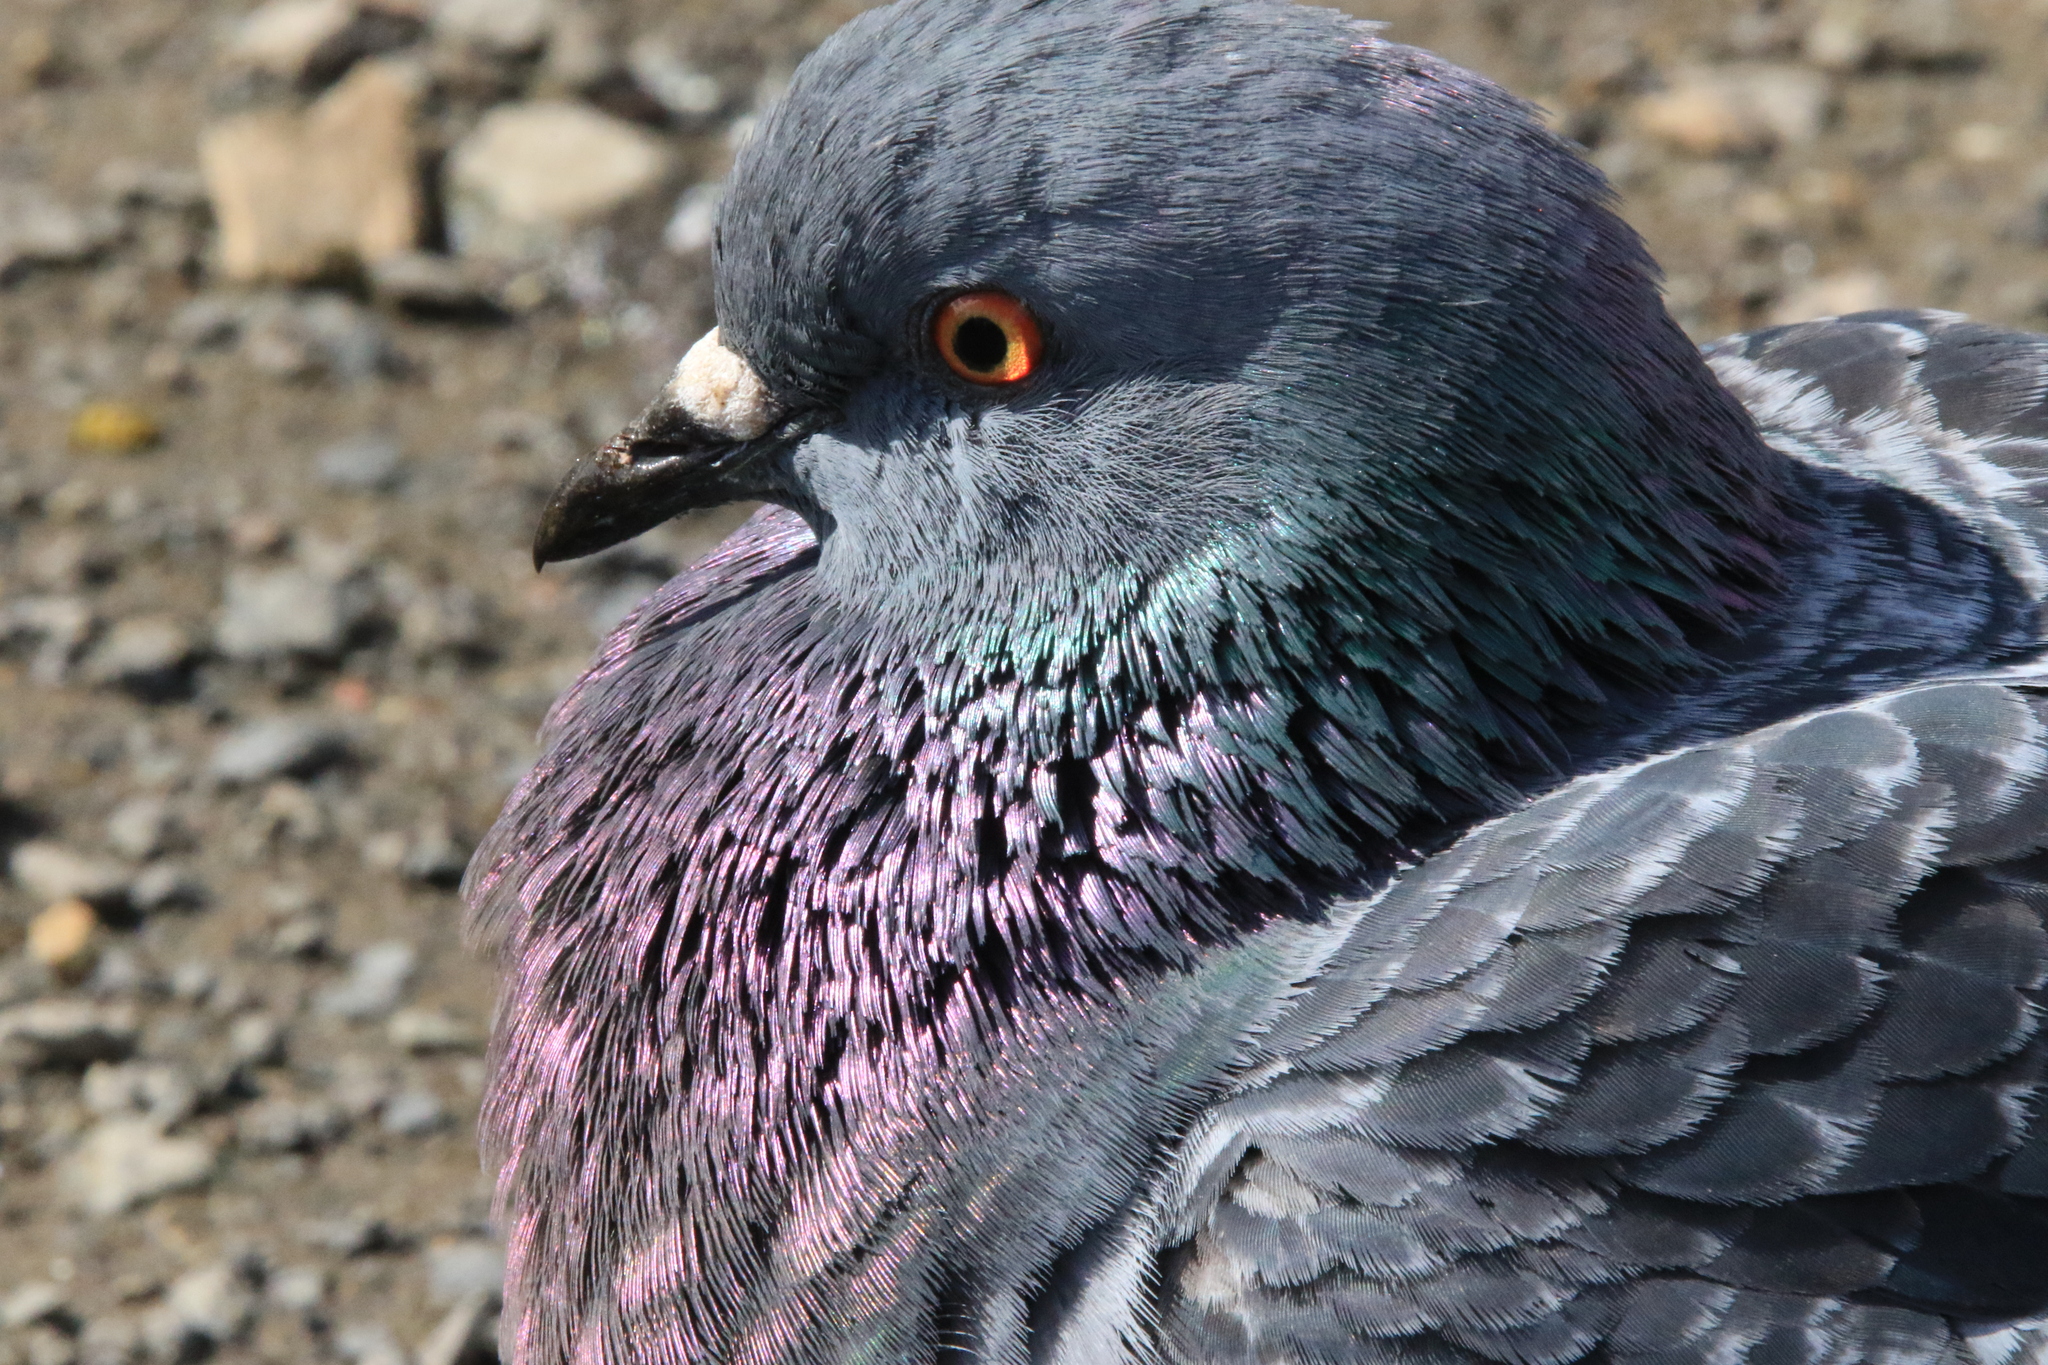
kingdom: Animalia
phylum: Chordata
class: Aves
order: Columbiformes
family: Columbidae
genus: Columba
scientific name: Columba livia
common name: Rock pigeon
